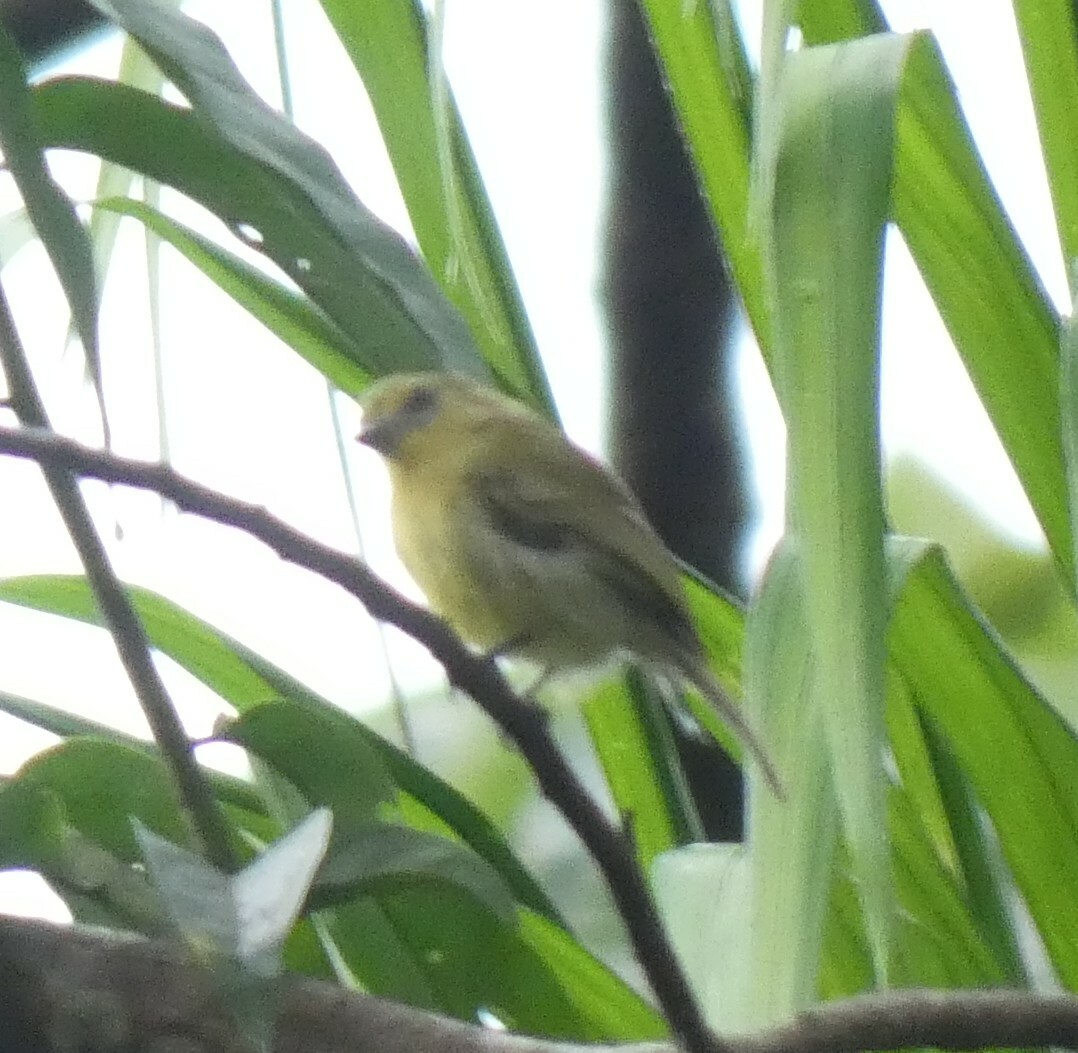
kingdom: Animalia
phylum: Chordata
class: Aves
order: Passeriformes
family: Tyrannidae
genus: Tolmomyias
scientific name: Tolmomyias flaviventris
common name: Ochre-lored flatbill
